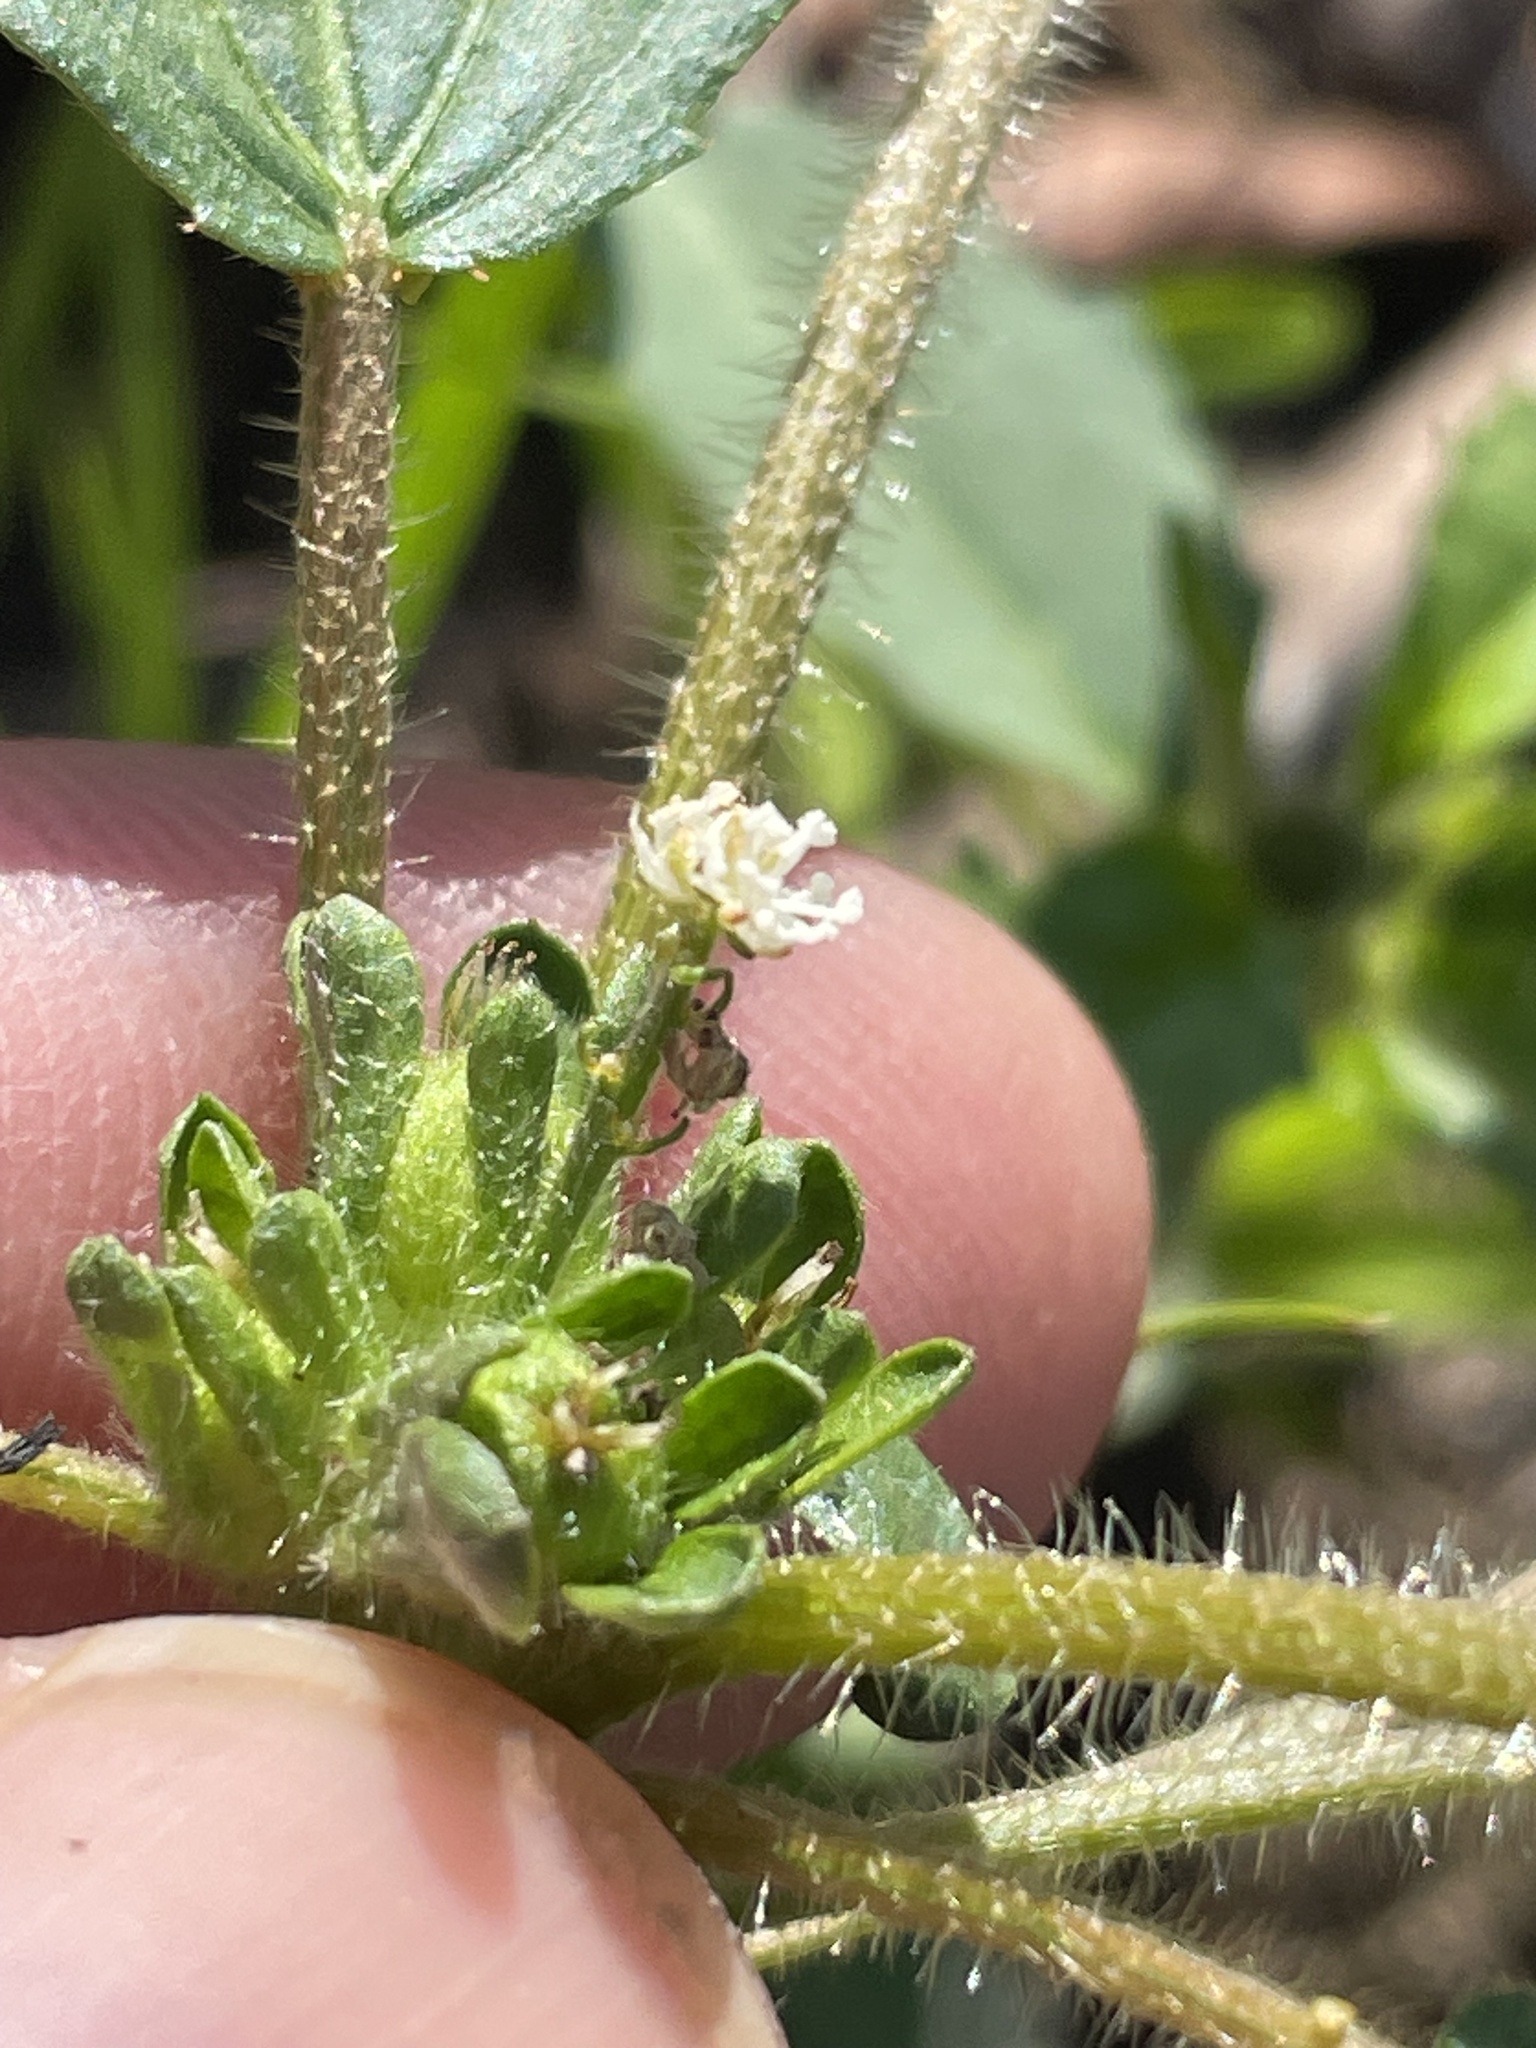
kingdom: Plantae
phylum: Tracheophyta
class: Magnoliopsida
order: Malpighiales
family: Euphorbiaceae
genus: Croton
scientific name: Croton glandulosus
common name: Tropic croton
